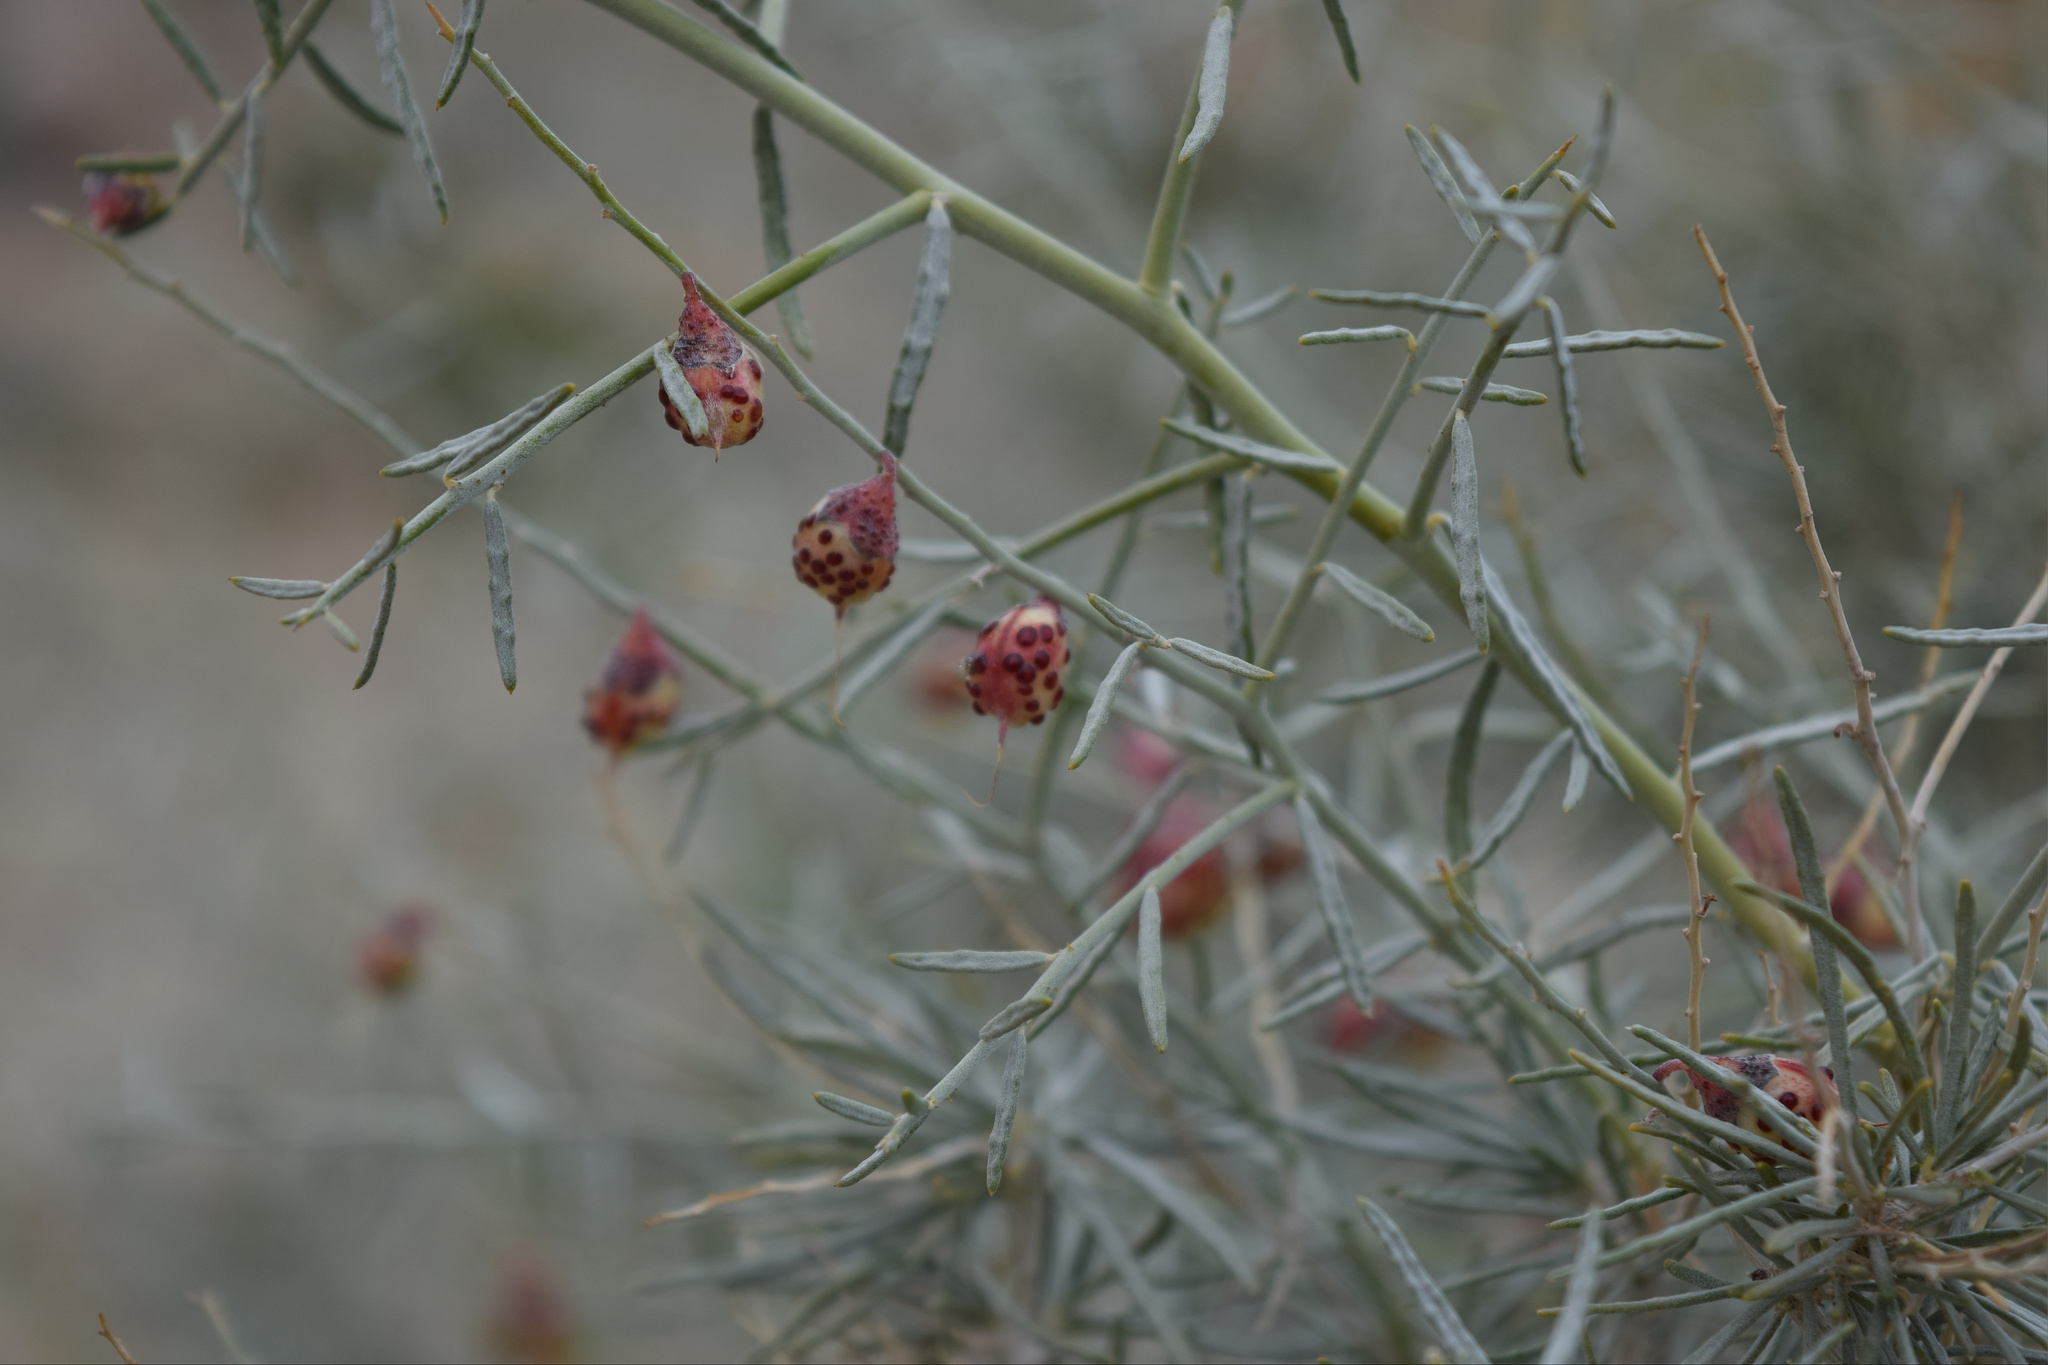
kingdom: Plantae
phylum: Tracheophyta
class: Magnoliopsida
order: Fabales
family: Fabaceae
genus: Psorothamnus
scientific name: Psorothamnus schottii
